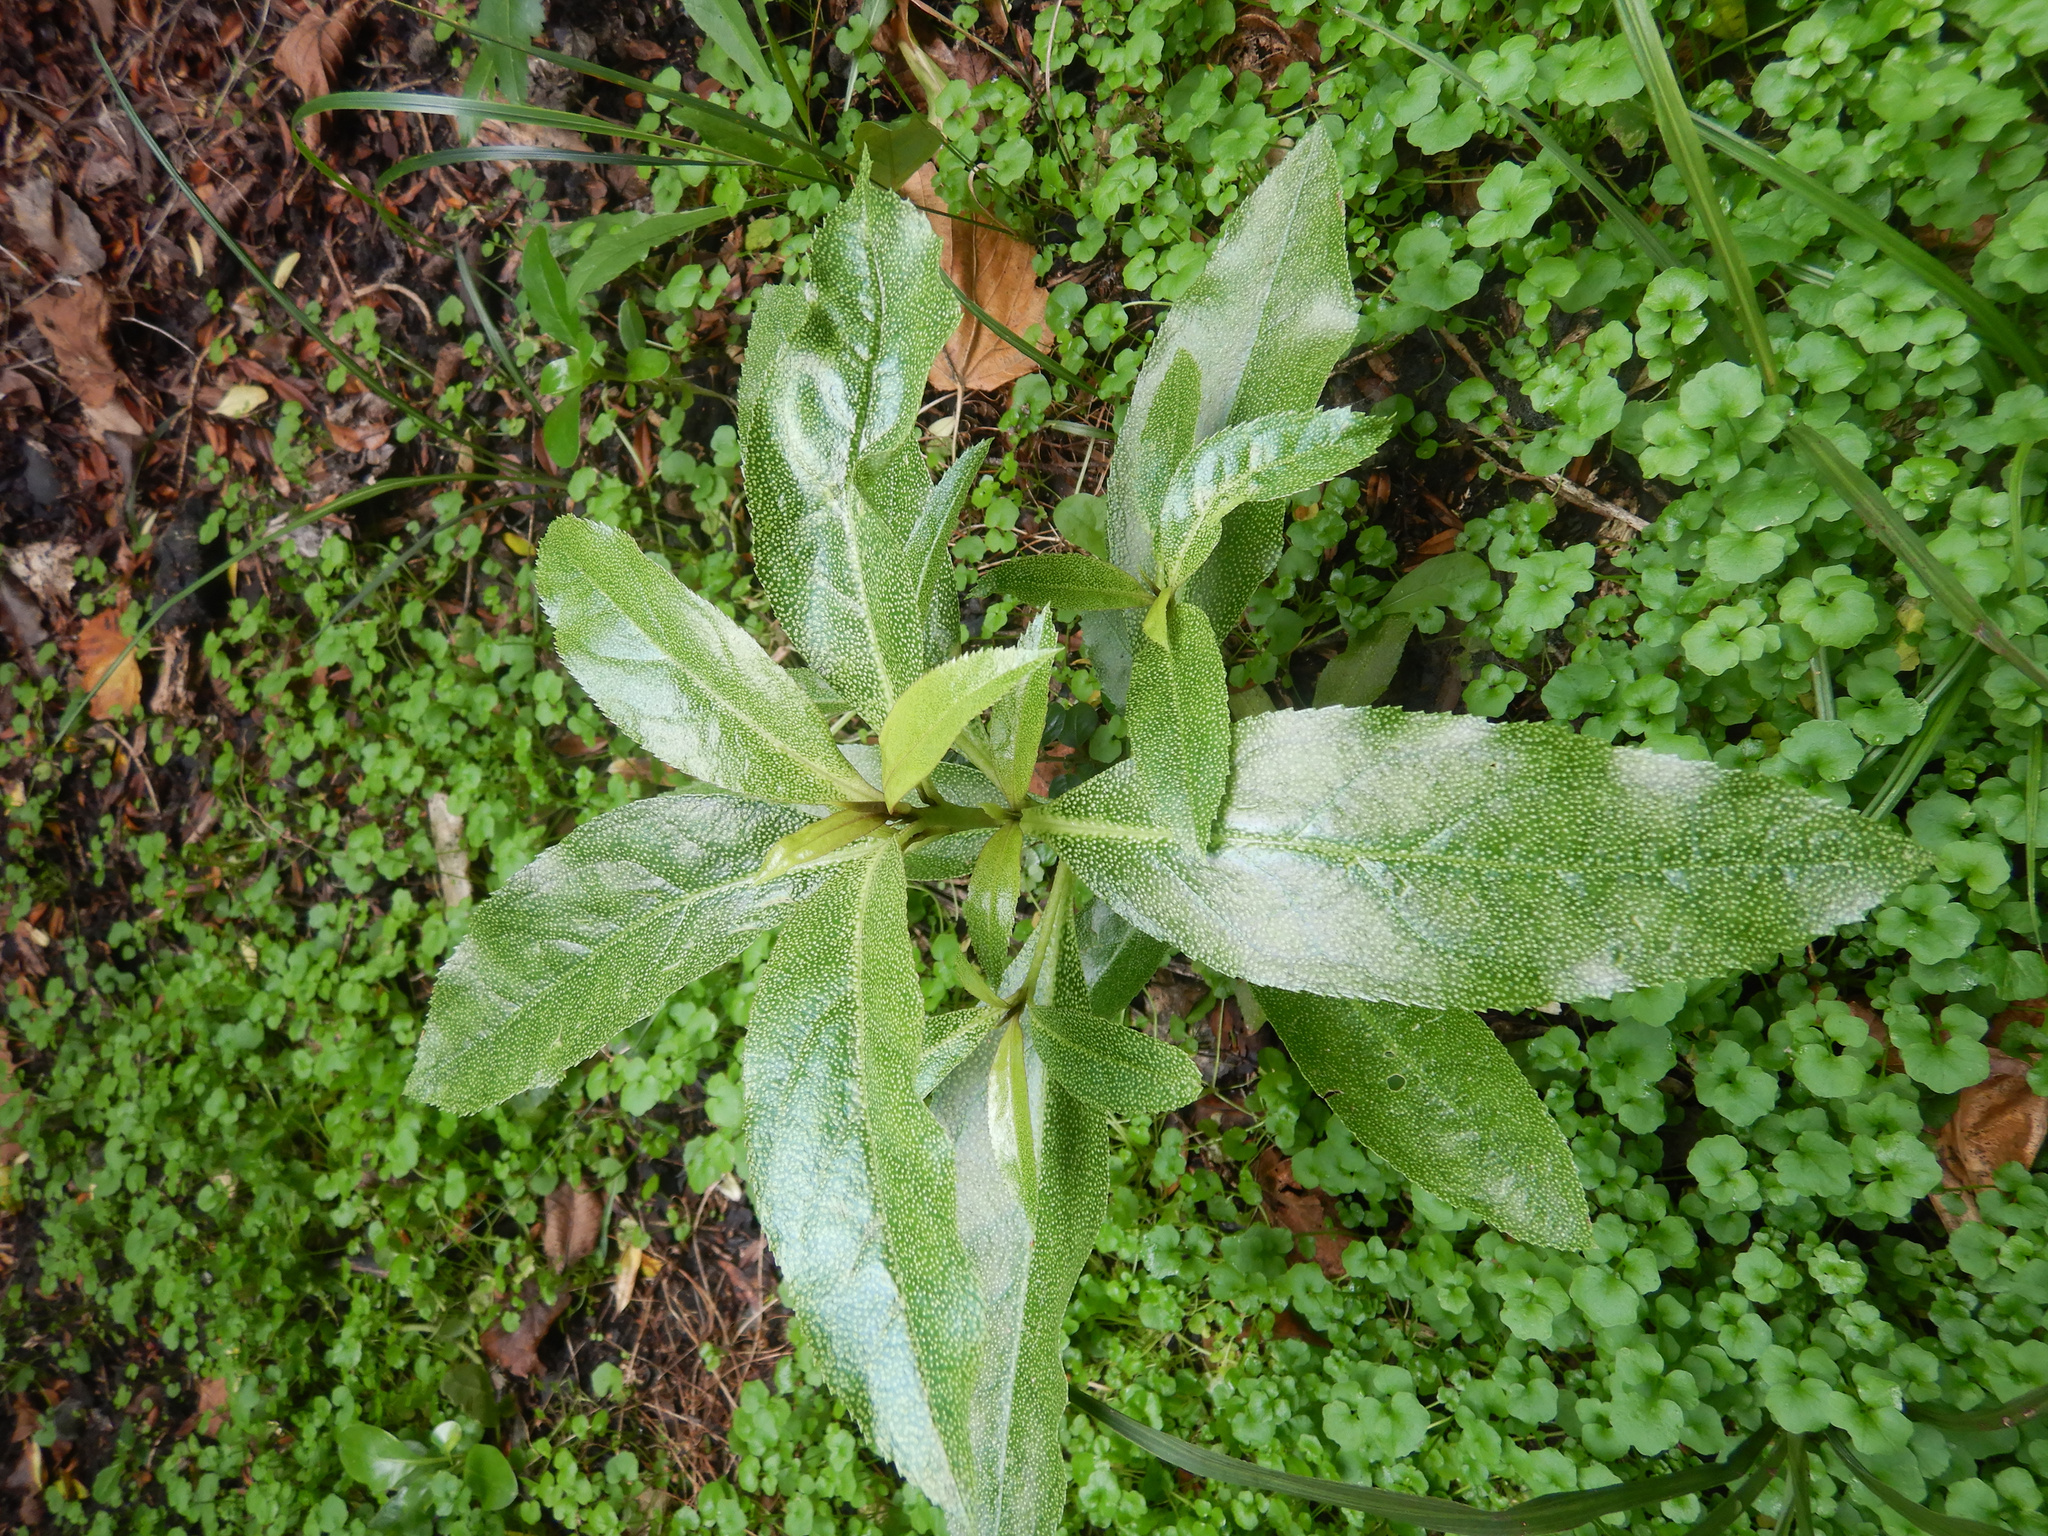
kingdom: Plantae
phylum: Tracheophyta
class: Magnoliopsida
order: Lamiales
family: Scrophulariaceae
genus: Myoporum
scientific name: Myoporum laetum
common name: Ngaio tree
